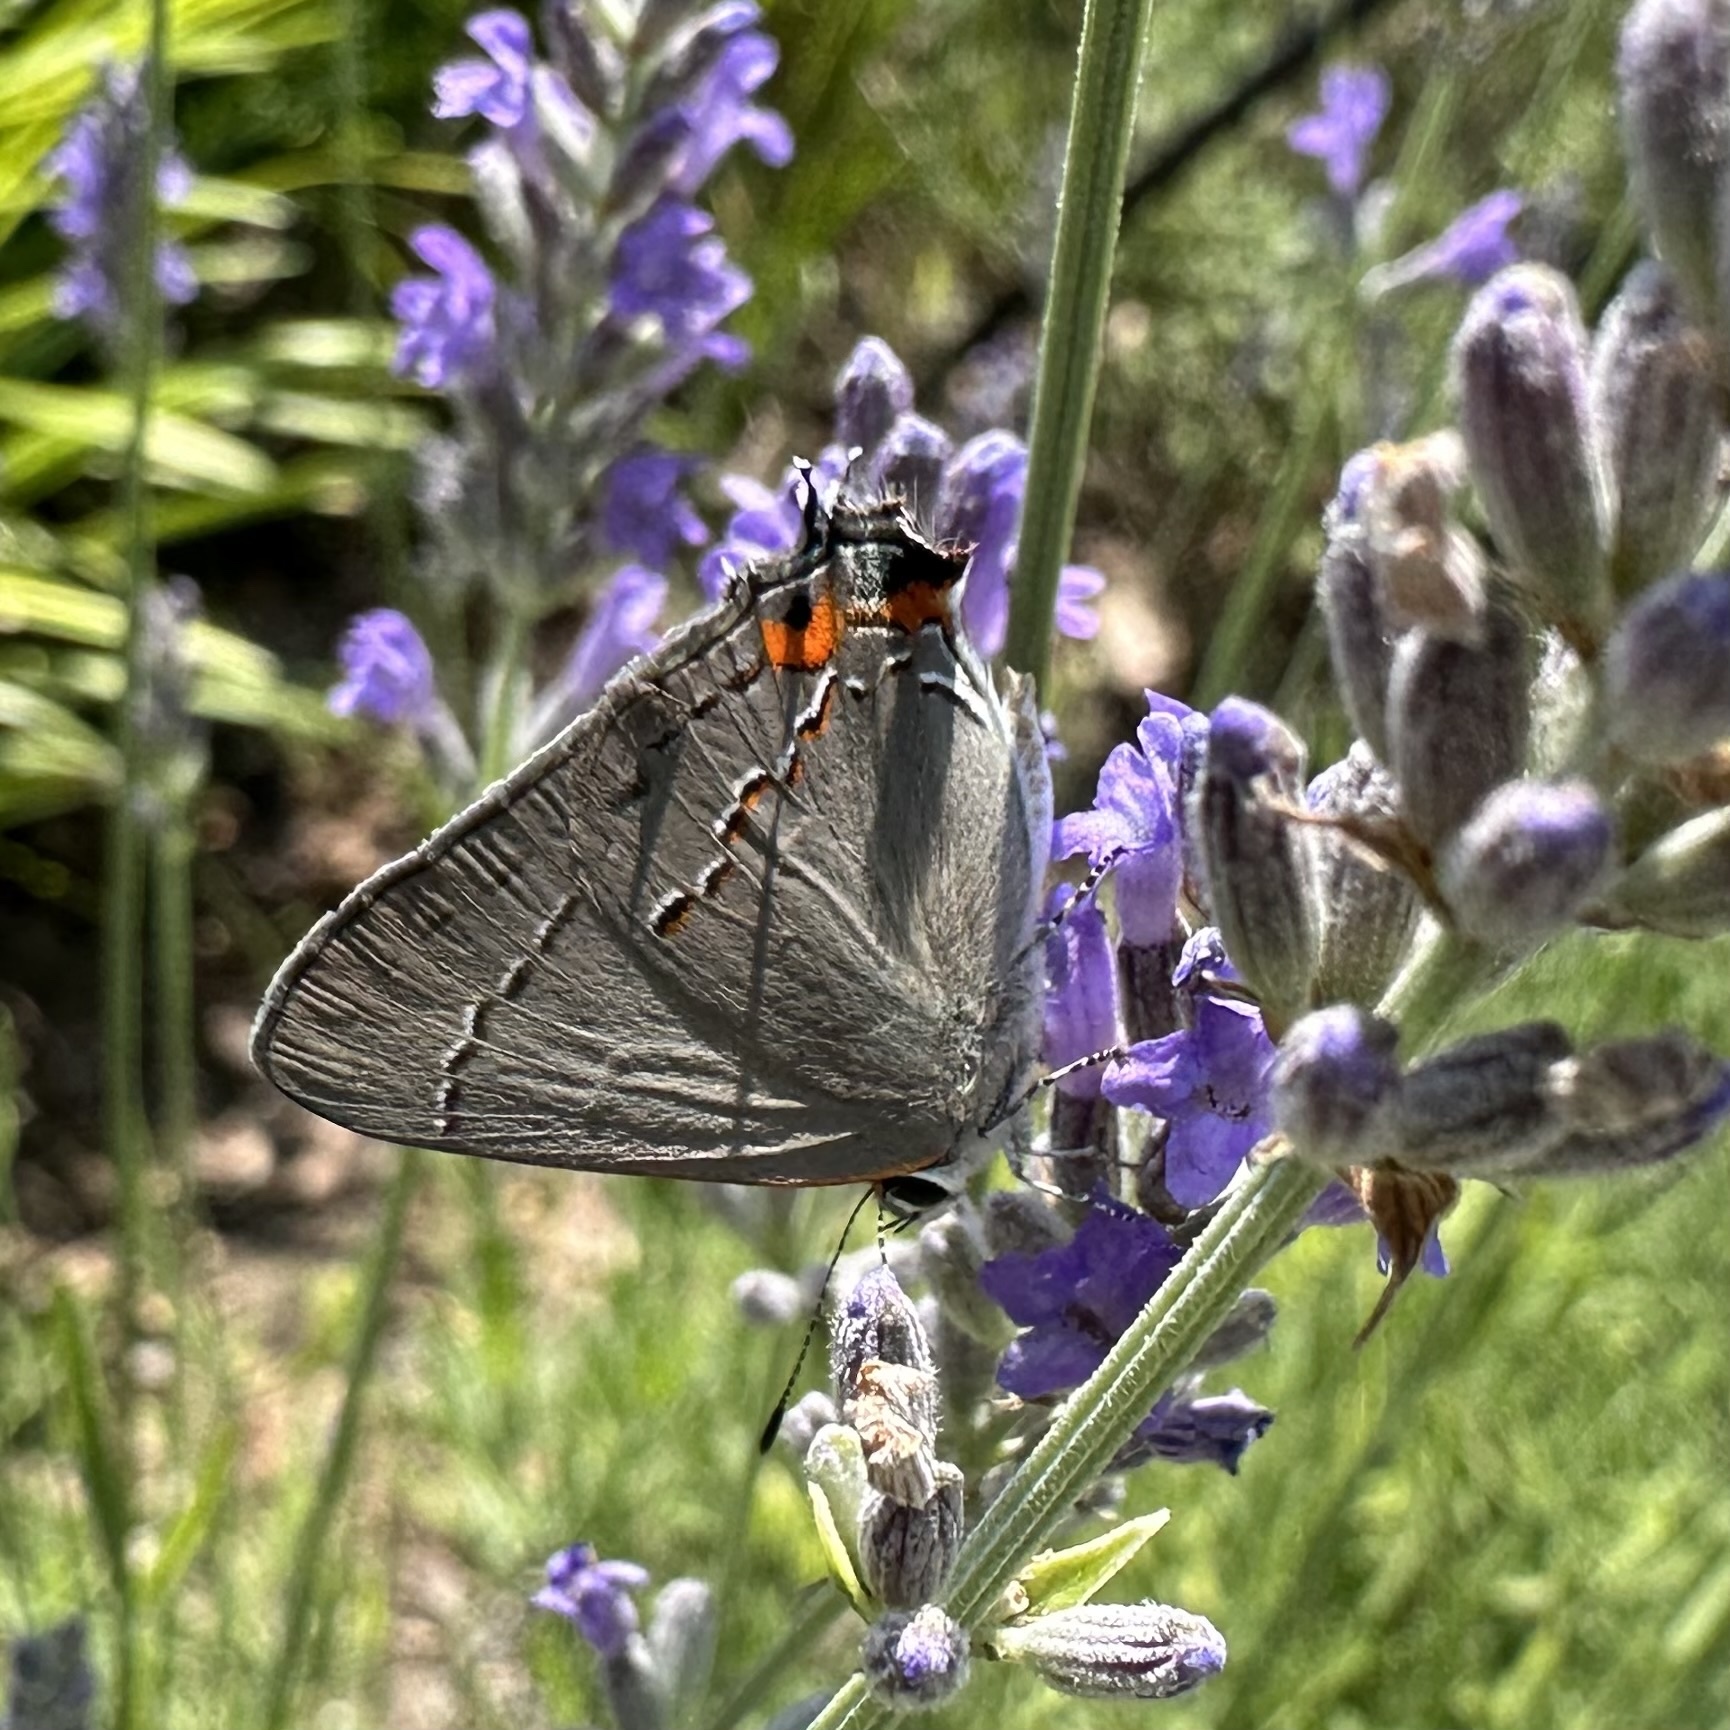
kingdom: Animalia
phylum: Arthropoda
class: Insecta
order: Lepidoptera
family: Lycaenidae
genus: Strymon
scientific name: Strymon melinus
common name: Gray hairstreak
